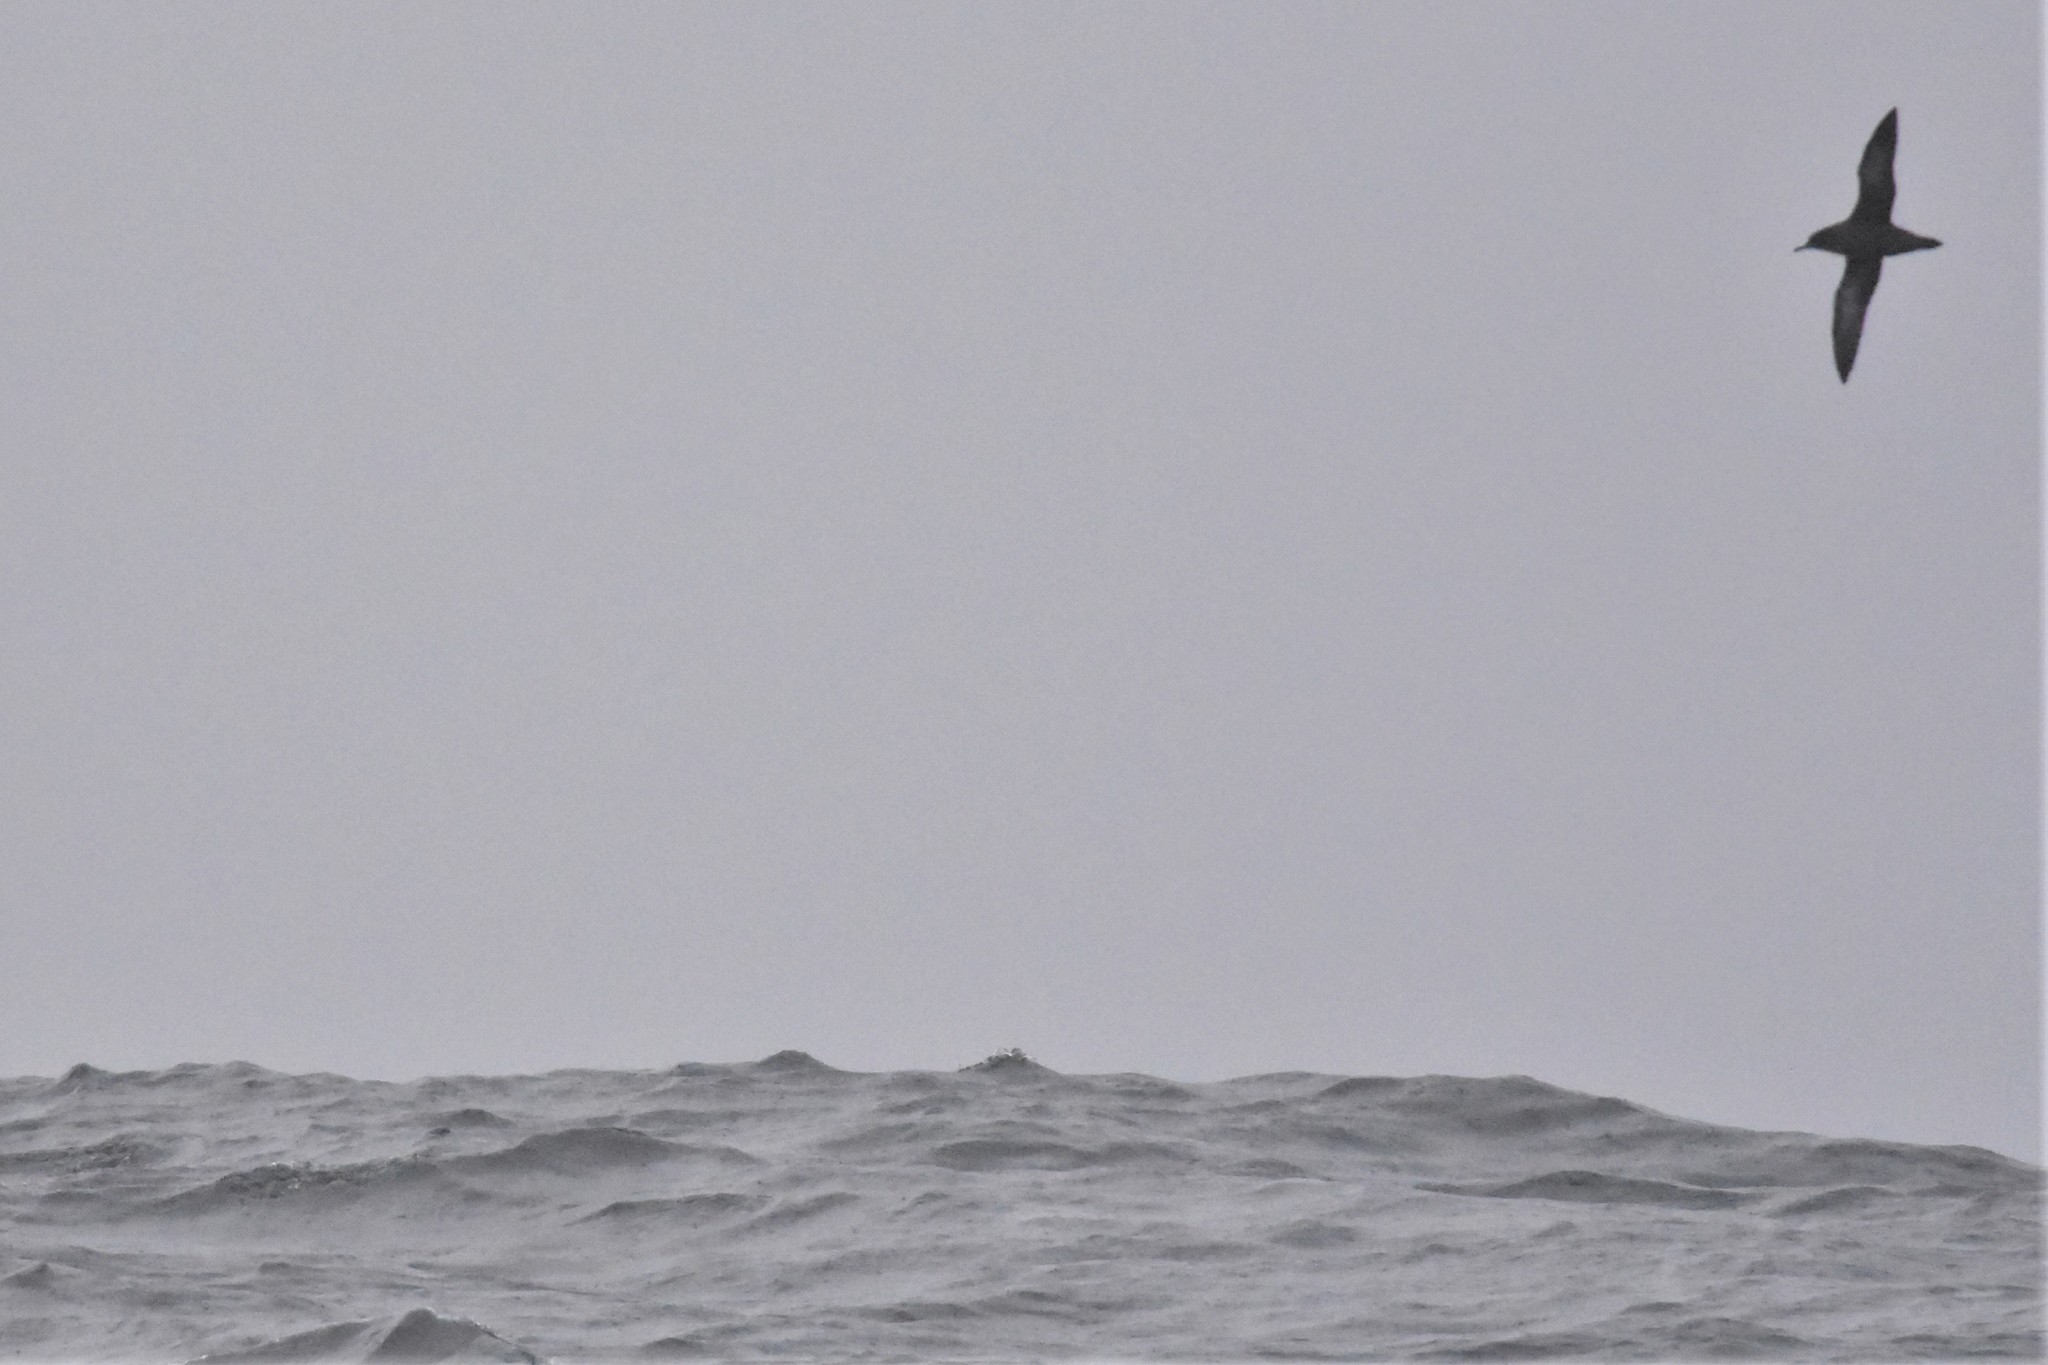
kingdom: Animalia
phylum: Chordata
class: Aves
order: Procellariiformes
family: Procellariidae
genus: Puffinus
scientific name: Puffinus griseus
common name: Sooty shearwater
